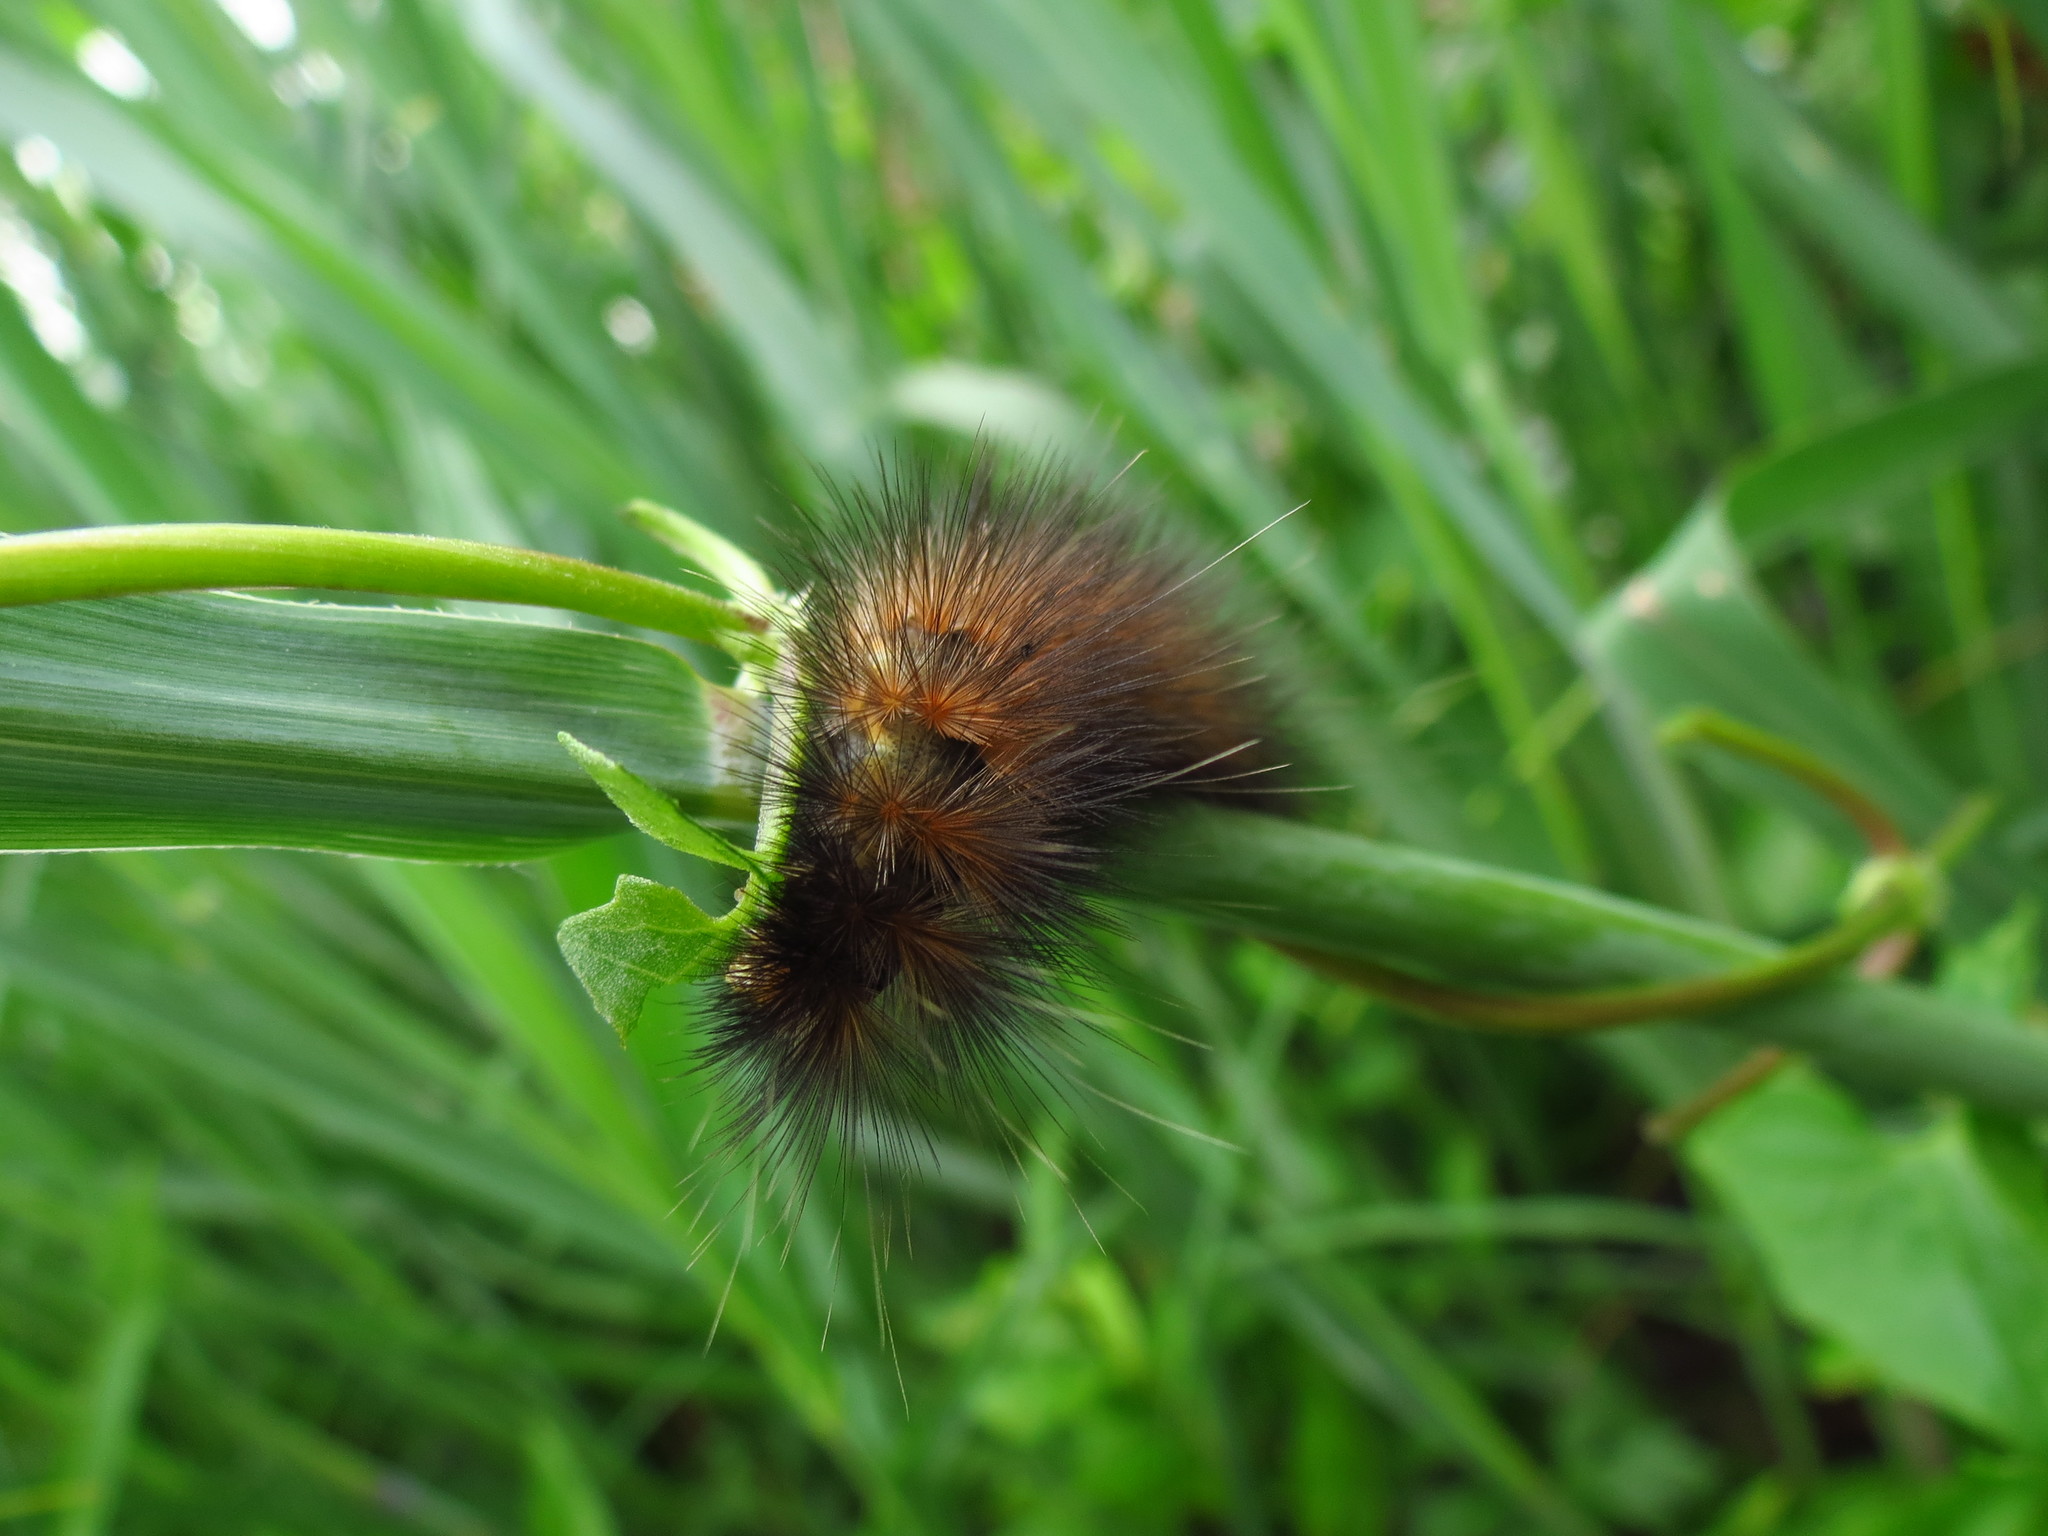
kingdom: Animalia
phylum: Arthropoda
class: Insecta
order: Lepidoptera
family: Erebidae
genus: Spilosoma
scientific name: Spilosoma virginica
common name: Virginia tiger moth
